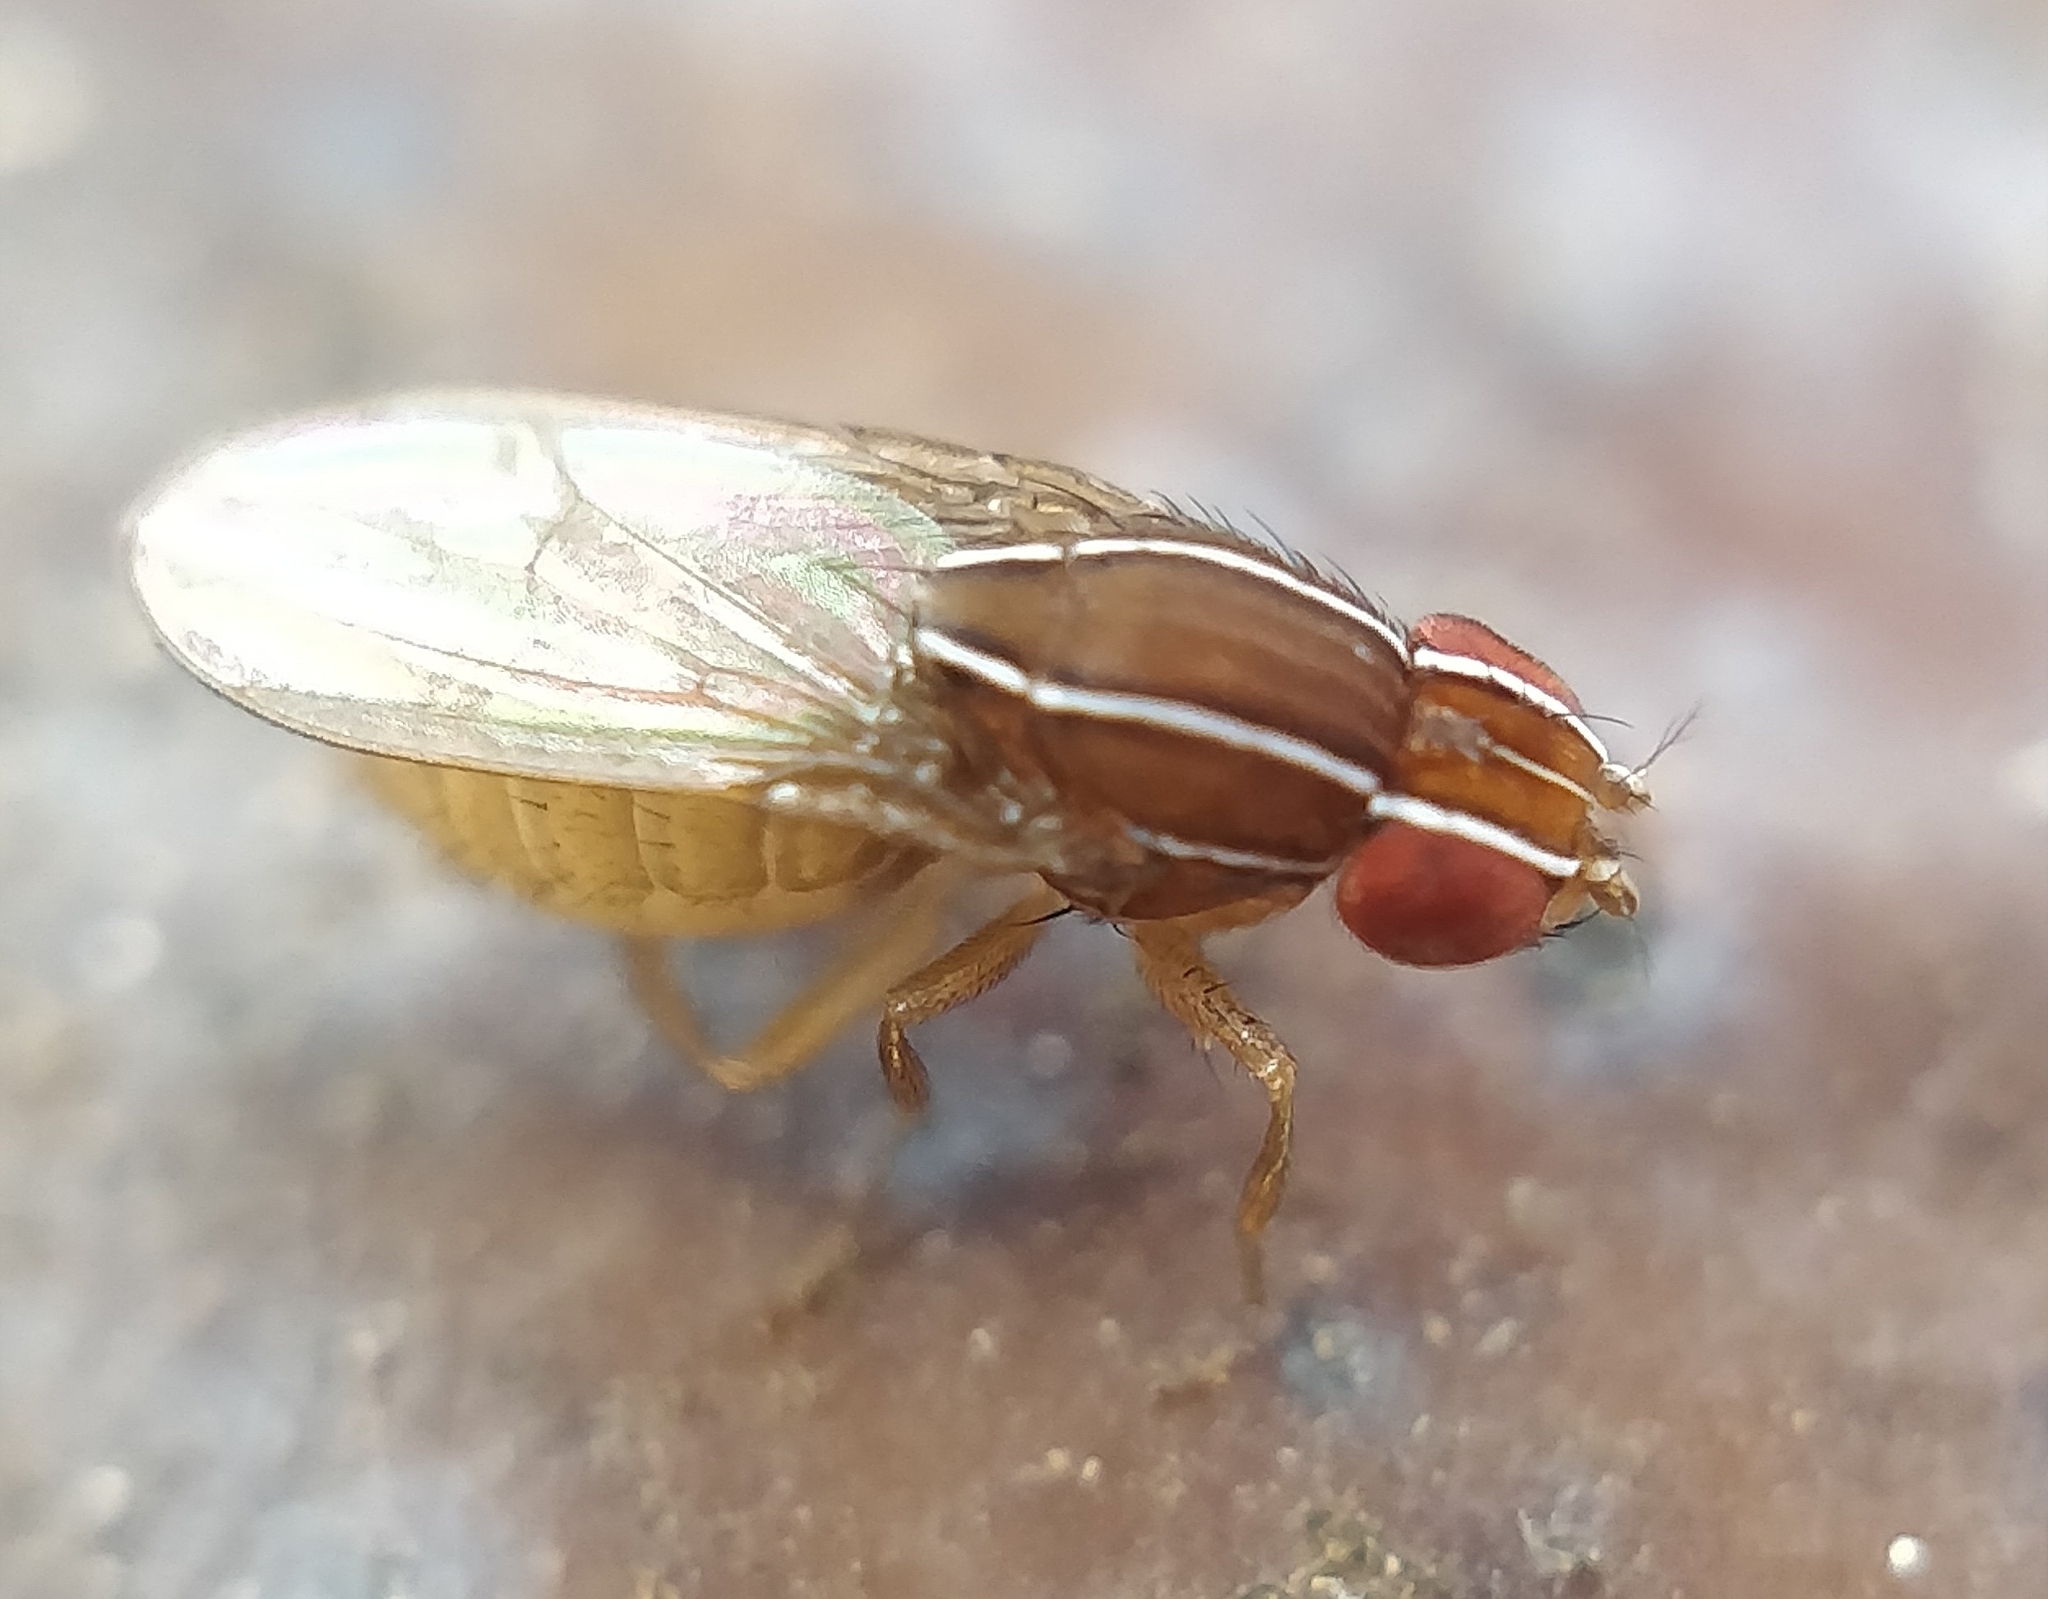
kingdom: Animalia
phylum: Arthropoda
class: Insecta
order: Diptera
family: Drosophilidae
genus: Zaprionus
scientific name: Zaprionus tuberculatus
